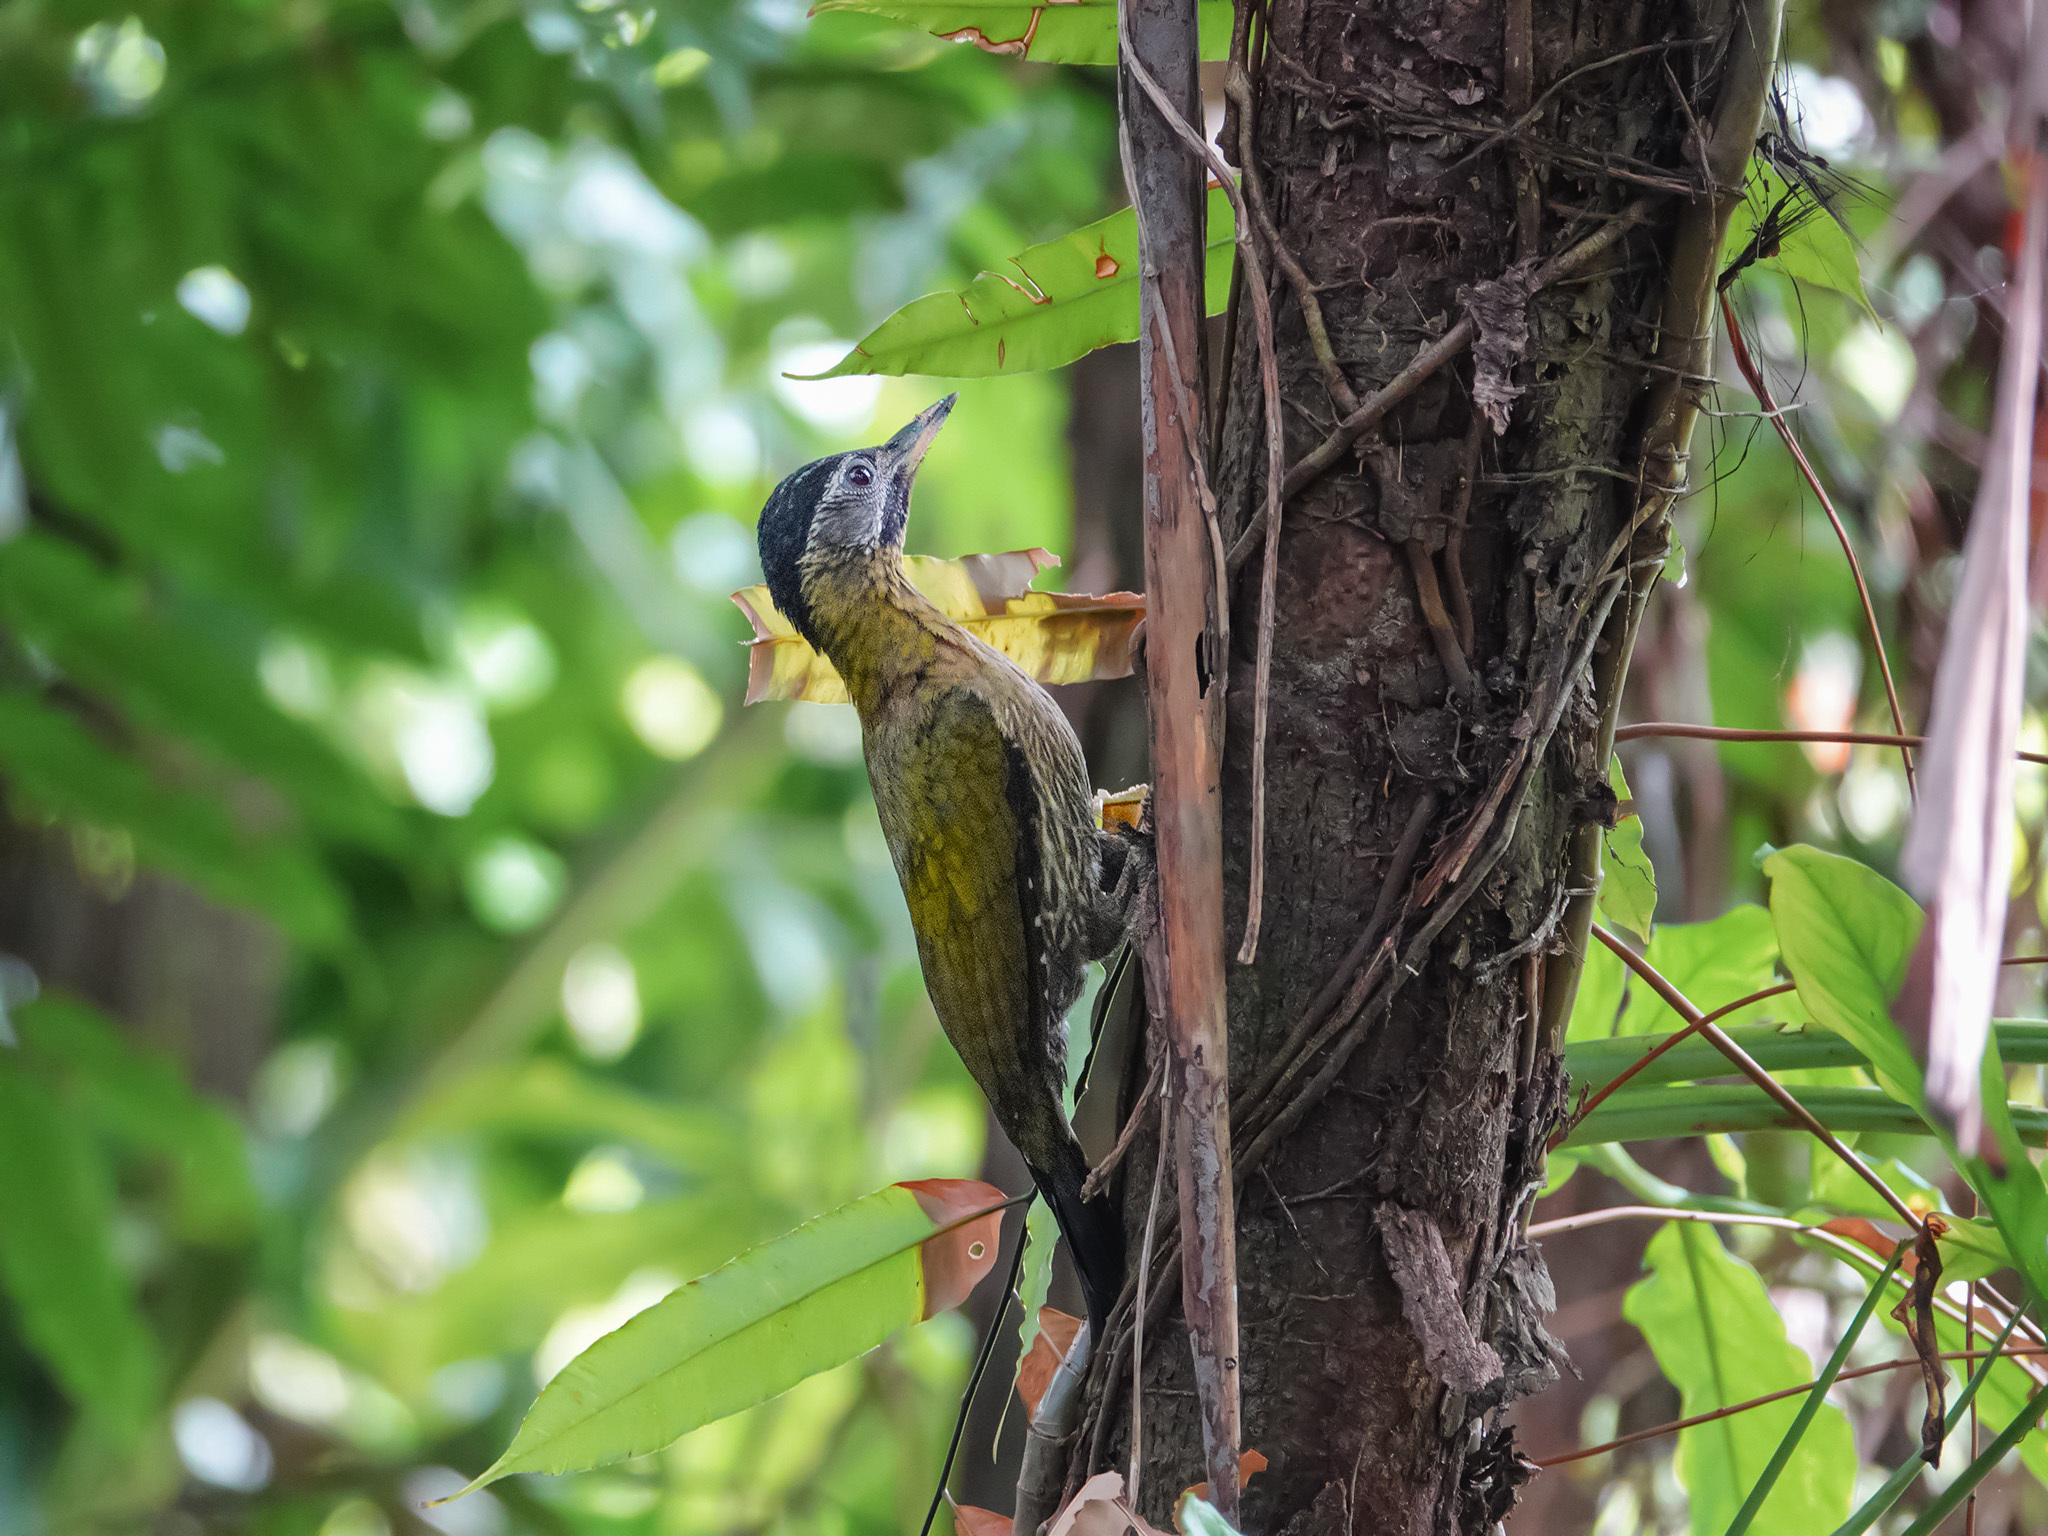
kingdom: Animalia
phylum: Chordata
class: Aves
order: Piciformes
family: Picidae
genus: Picus
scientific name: Picus vittatus
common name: Laced woodpecker
